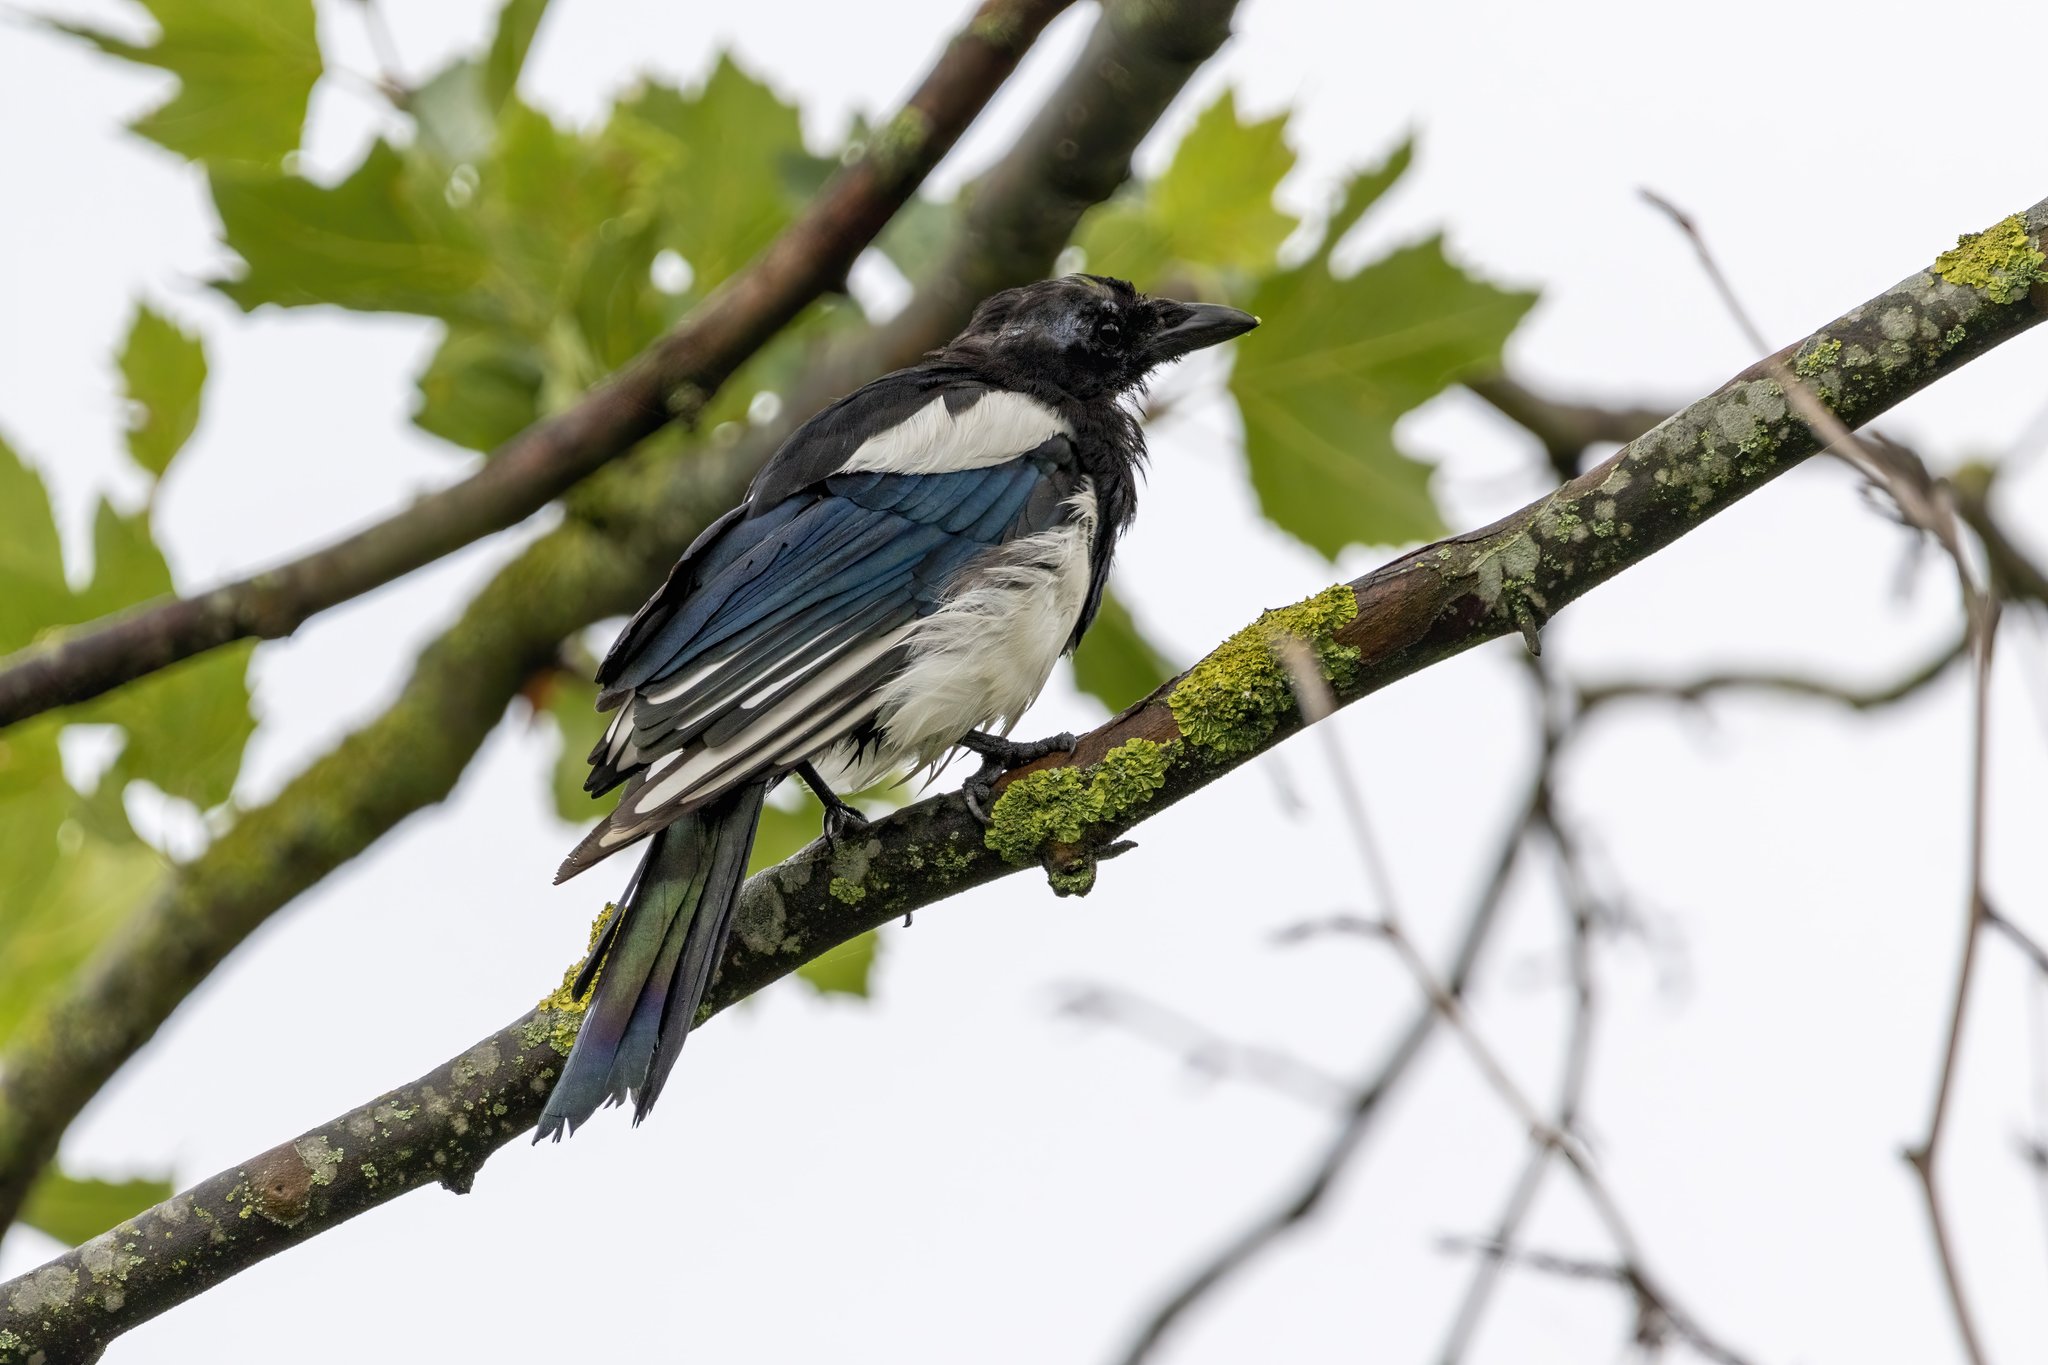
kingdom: Animalia
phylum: Chordata
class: Aves
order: Passeriformes
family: Corvidae
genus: Pica
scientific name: Pica pica
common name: Eurasian magpie
